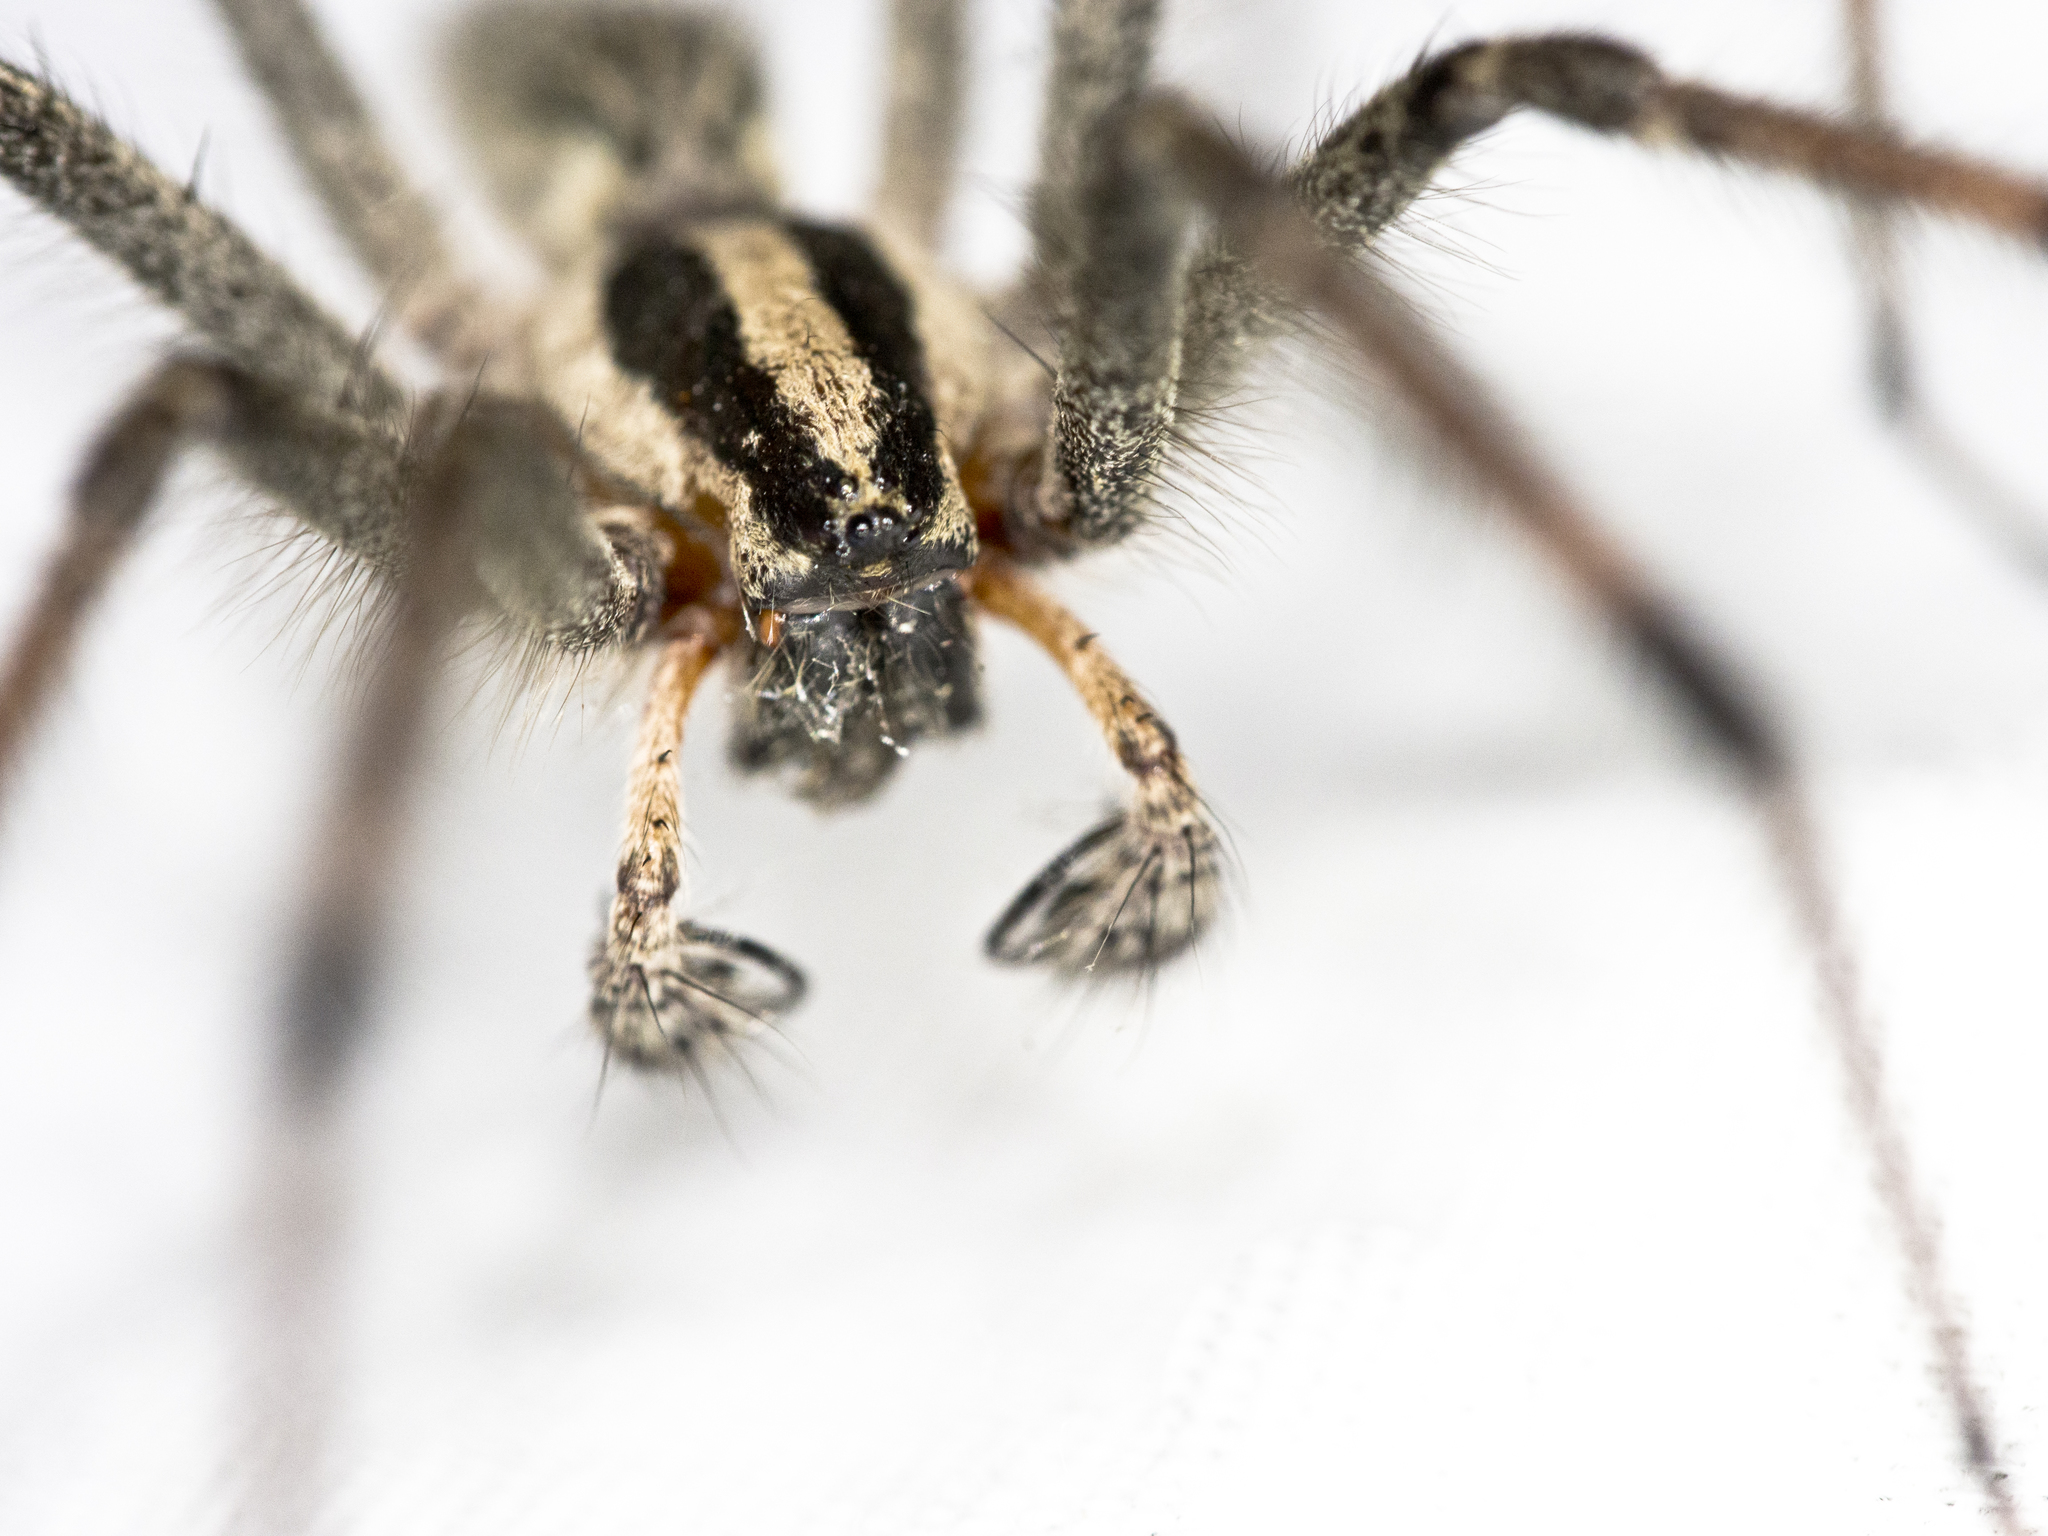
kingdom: Animalia
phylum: Arthropoda
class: Arachnida
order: Araneae
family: Agelenidae
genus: Agelenopsis
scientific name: Agelenopsis
